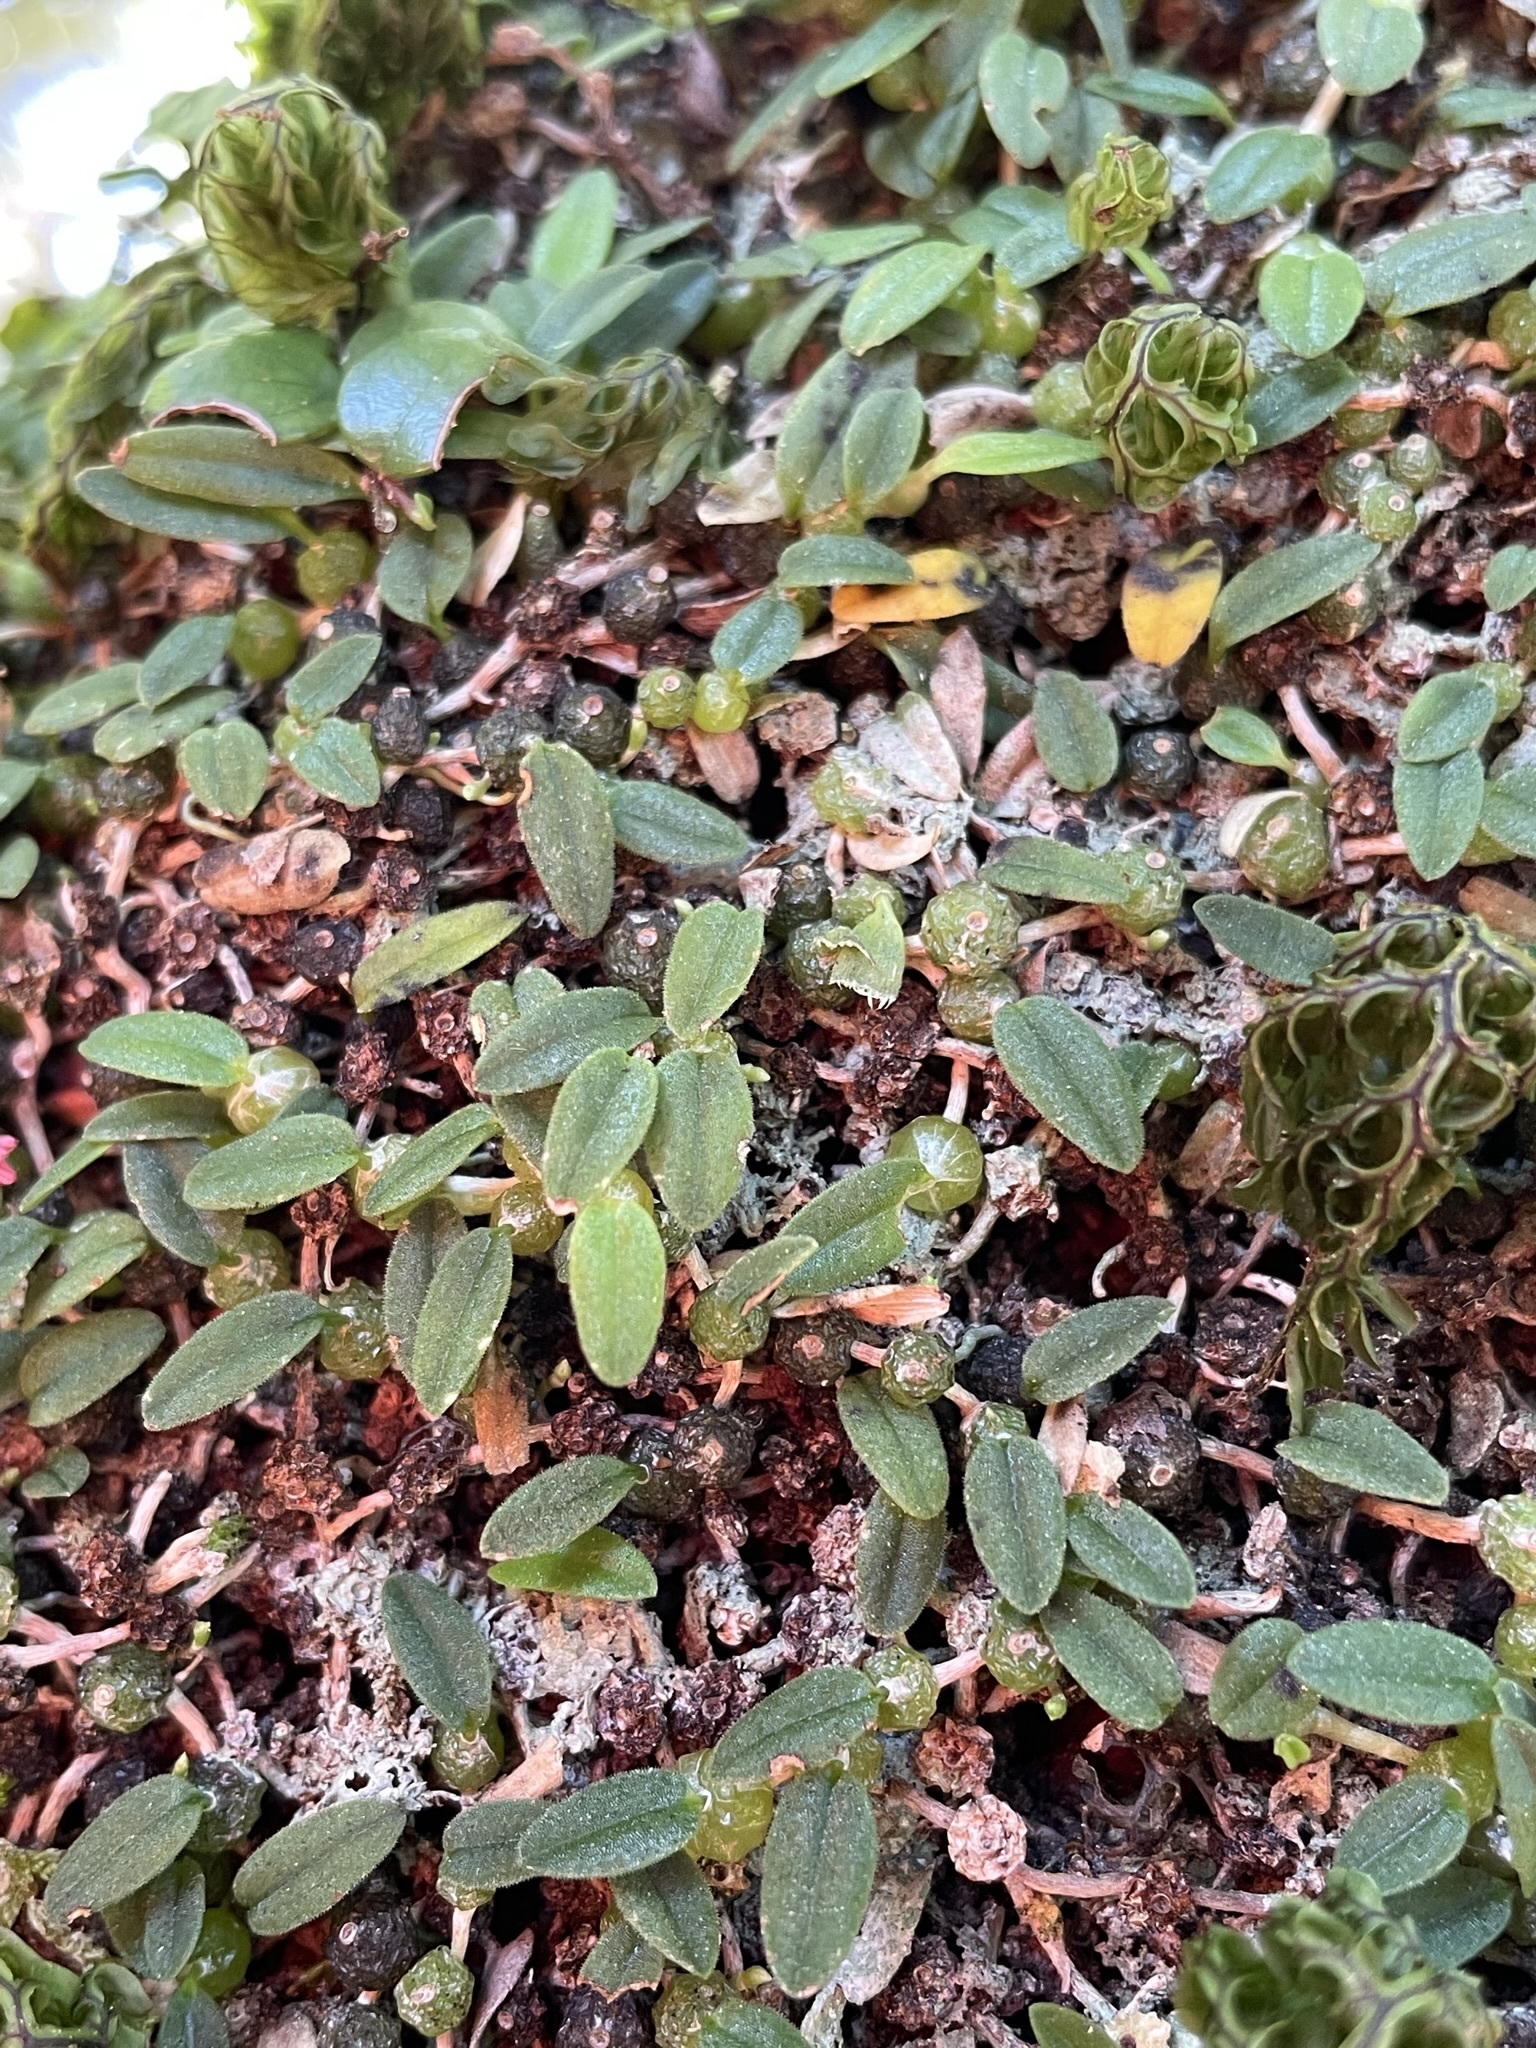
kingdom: Plantae
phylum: Tracheophyta
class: Liliopsida
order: Asparagales
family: Orchidaceae
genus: Bulbophyllum
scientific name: Bulbophyllum pygmaeum
